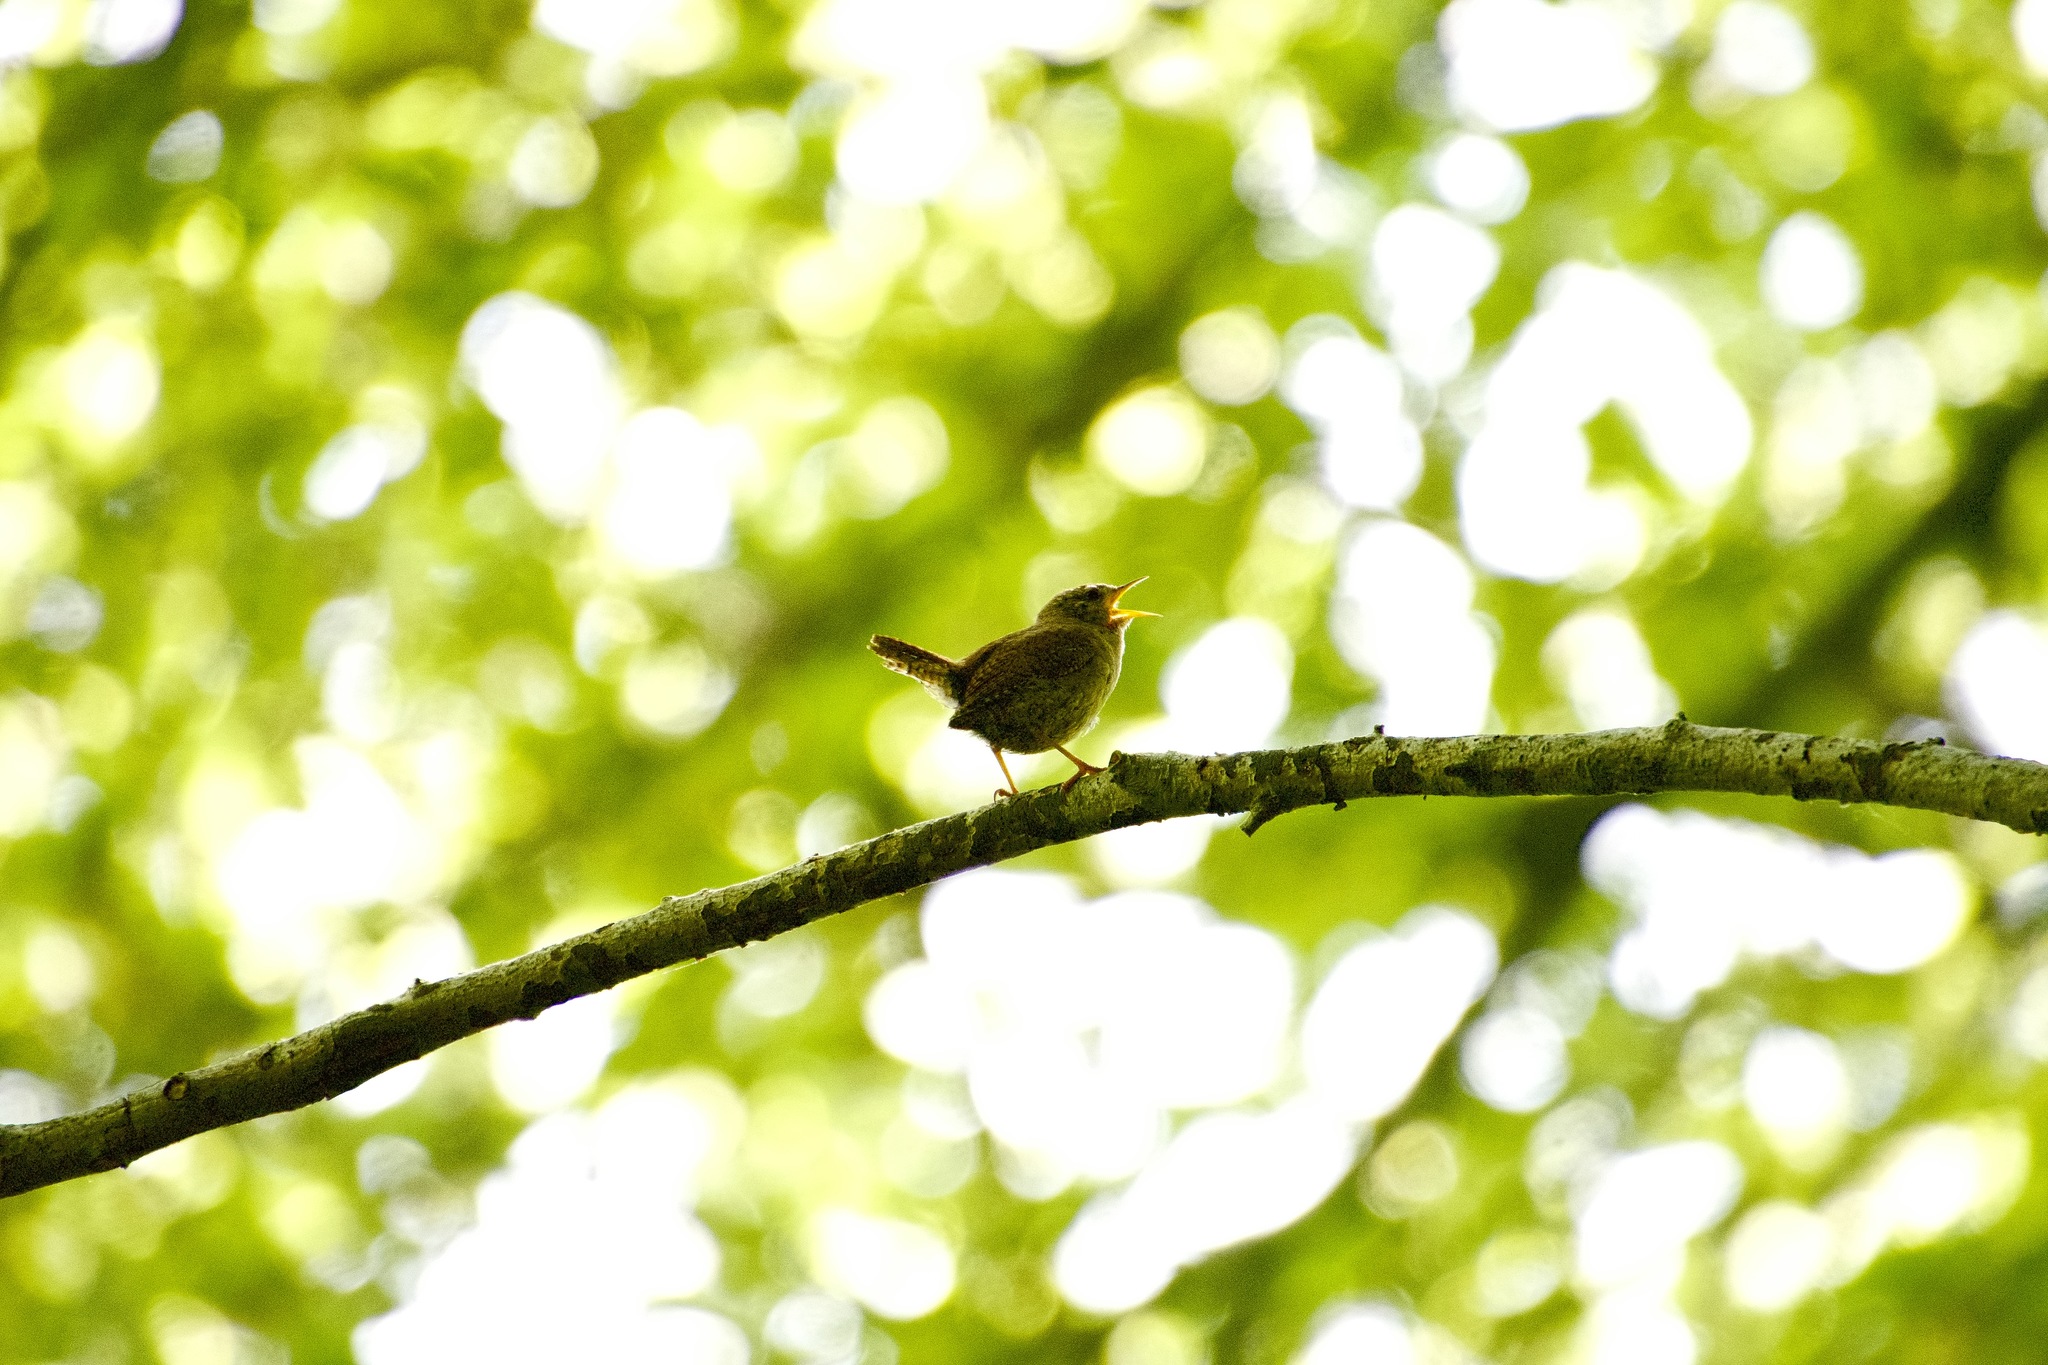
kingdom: Animalia
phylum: Chordata
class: Aves
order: Passeriformes
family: Troglodytidae
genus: Troglodytes
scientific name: Troglodytes troglodytes
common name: Eurasian wren
